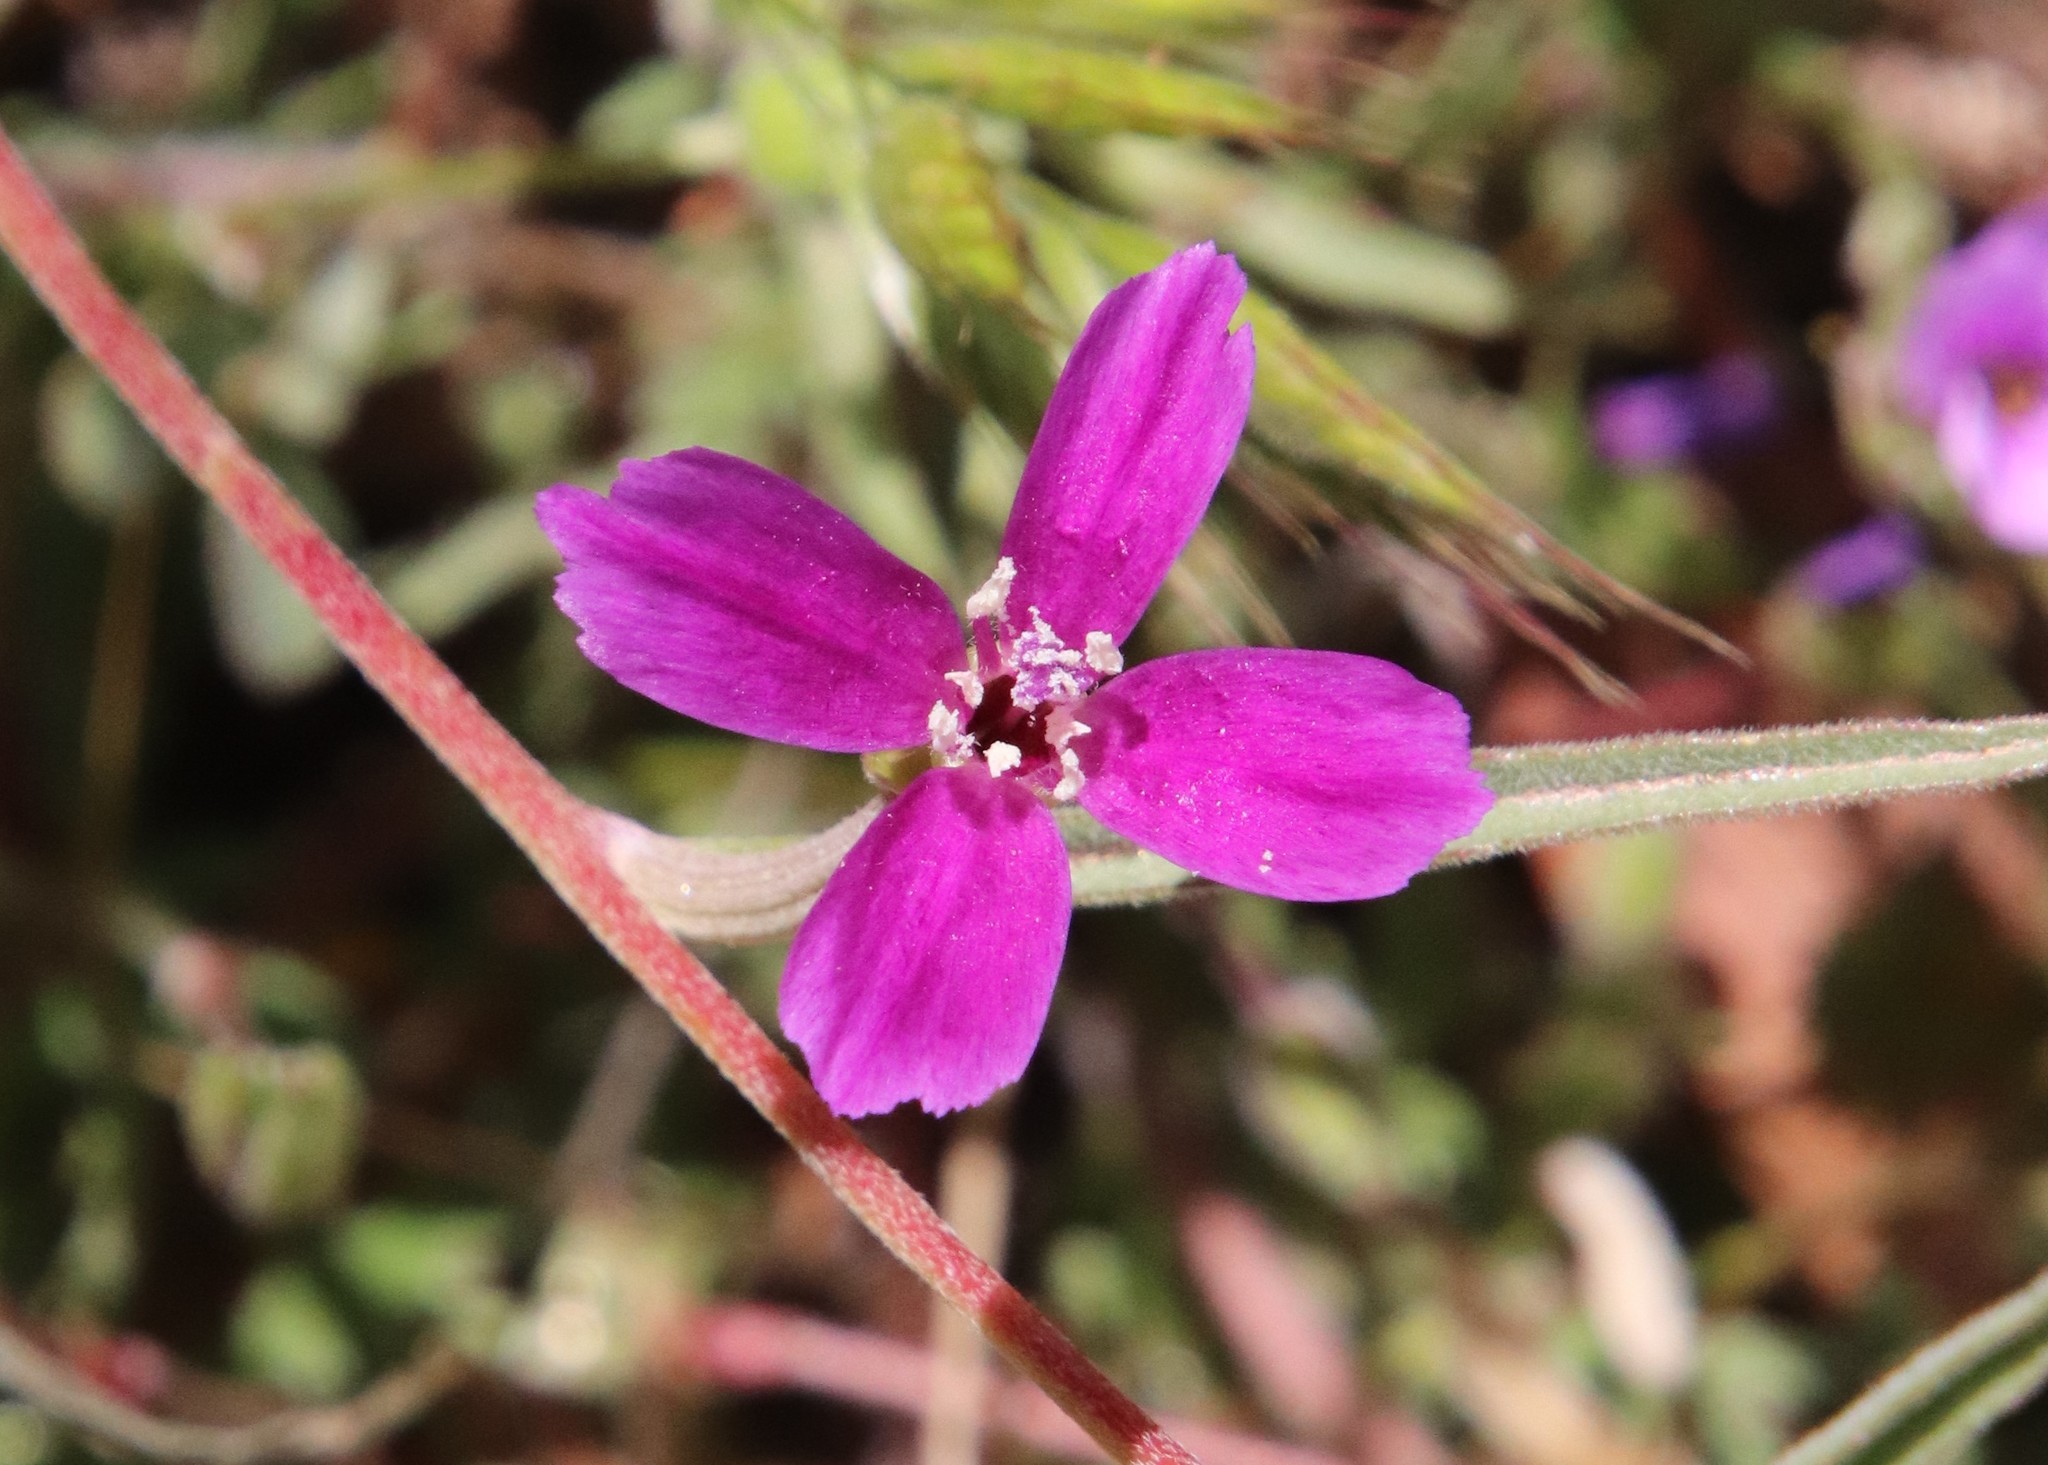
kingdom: Plantae
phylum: Tracheophyta
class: Magnoliopsida
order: Myrtales
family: Onagraceae
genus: Clarkia
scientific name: Clarkia purpurea
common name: Purple clarkia
